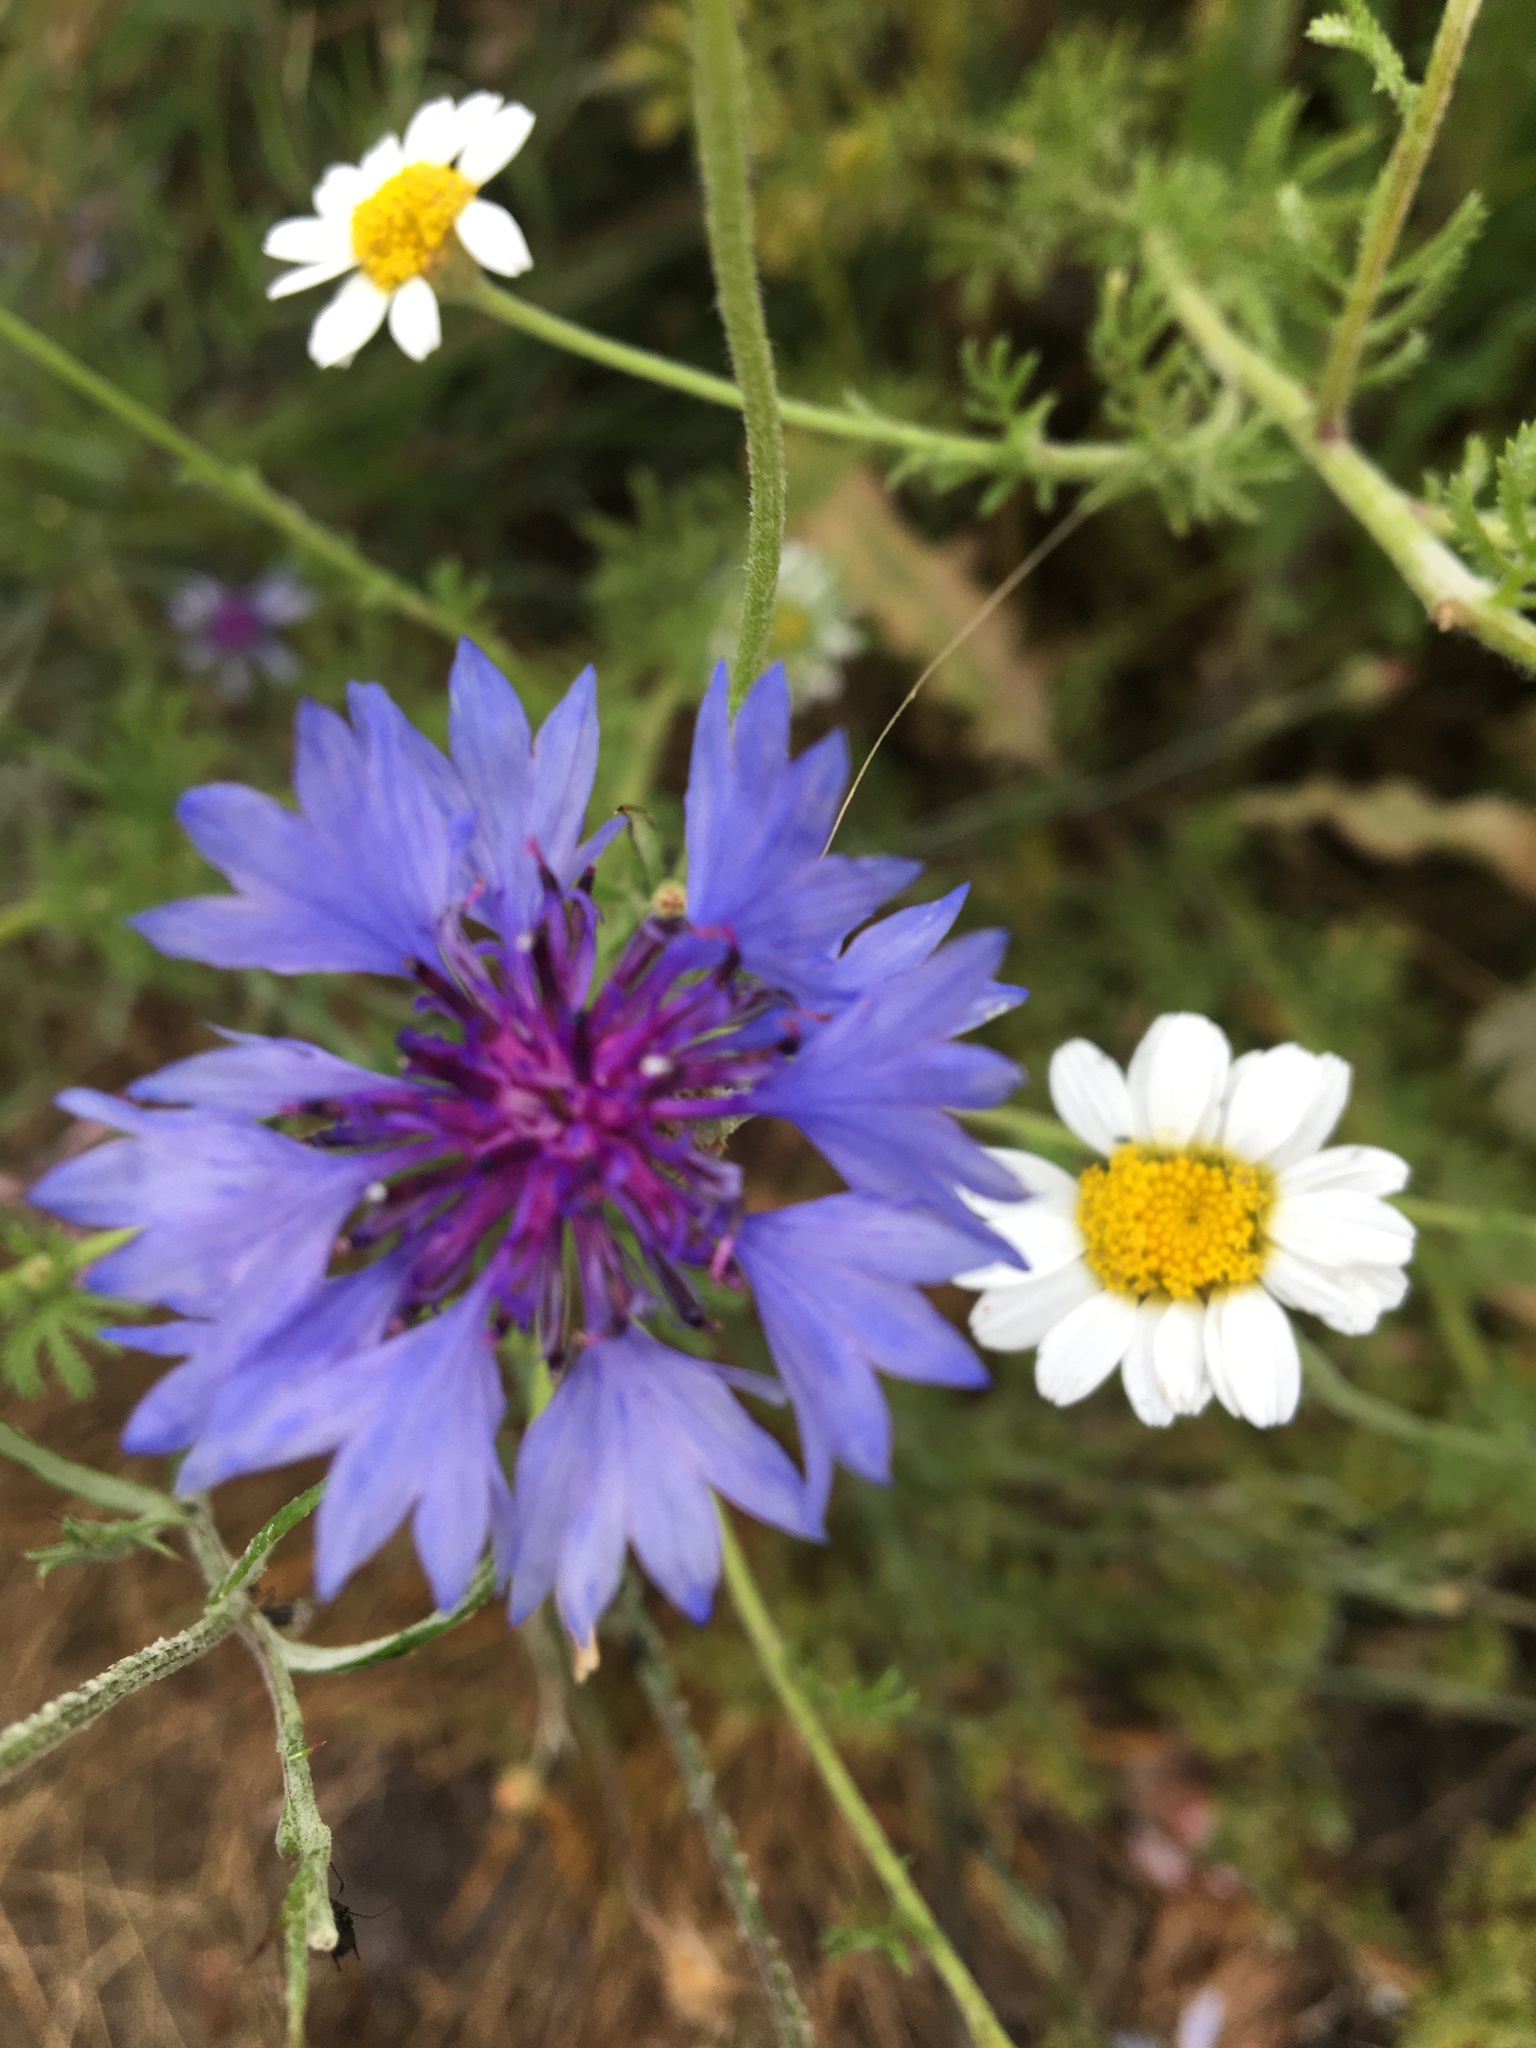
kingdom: Plantae
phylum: Tracheophyta
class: Magnoliopsida
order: Asterales
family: Asteraceae
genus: Centaurea
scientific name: Centaurea cyanus
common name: Cornflower
